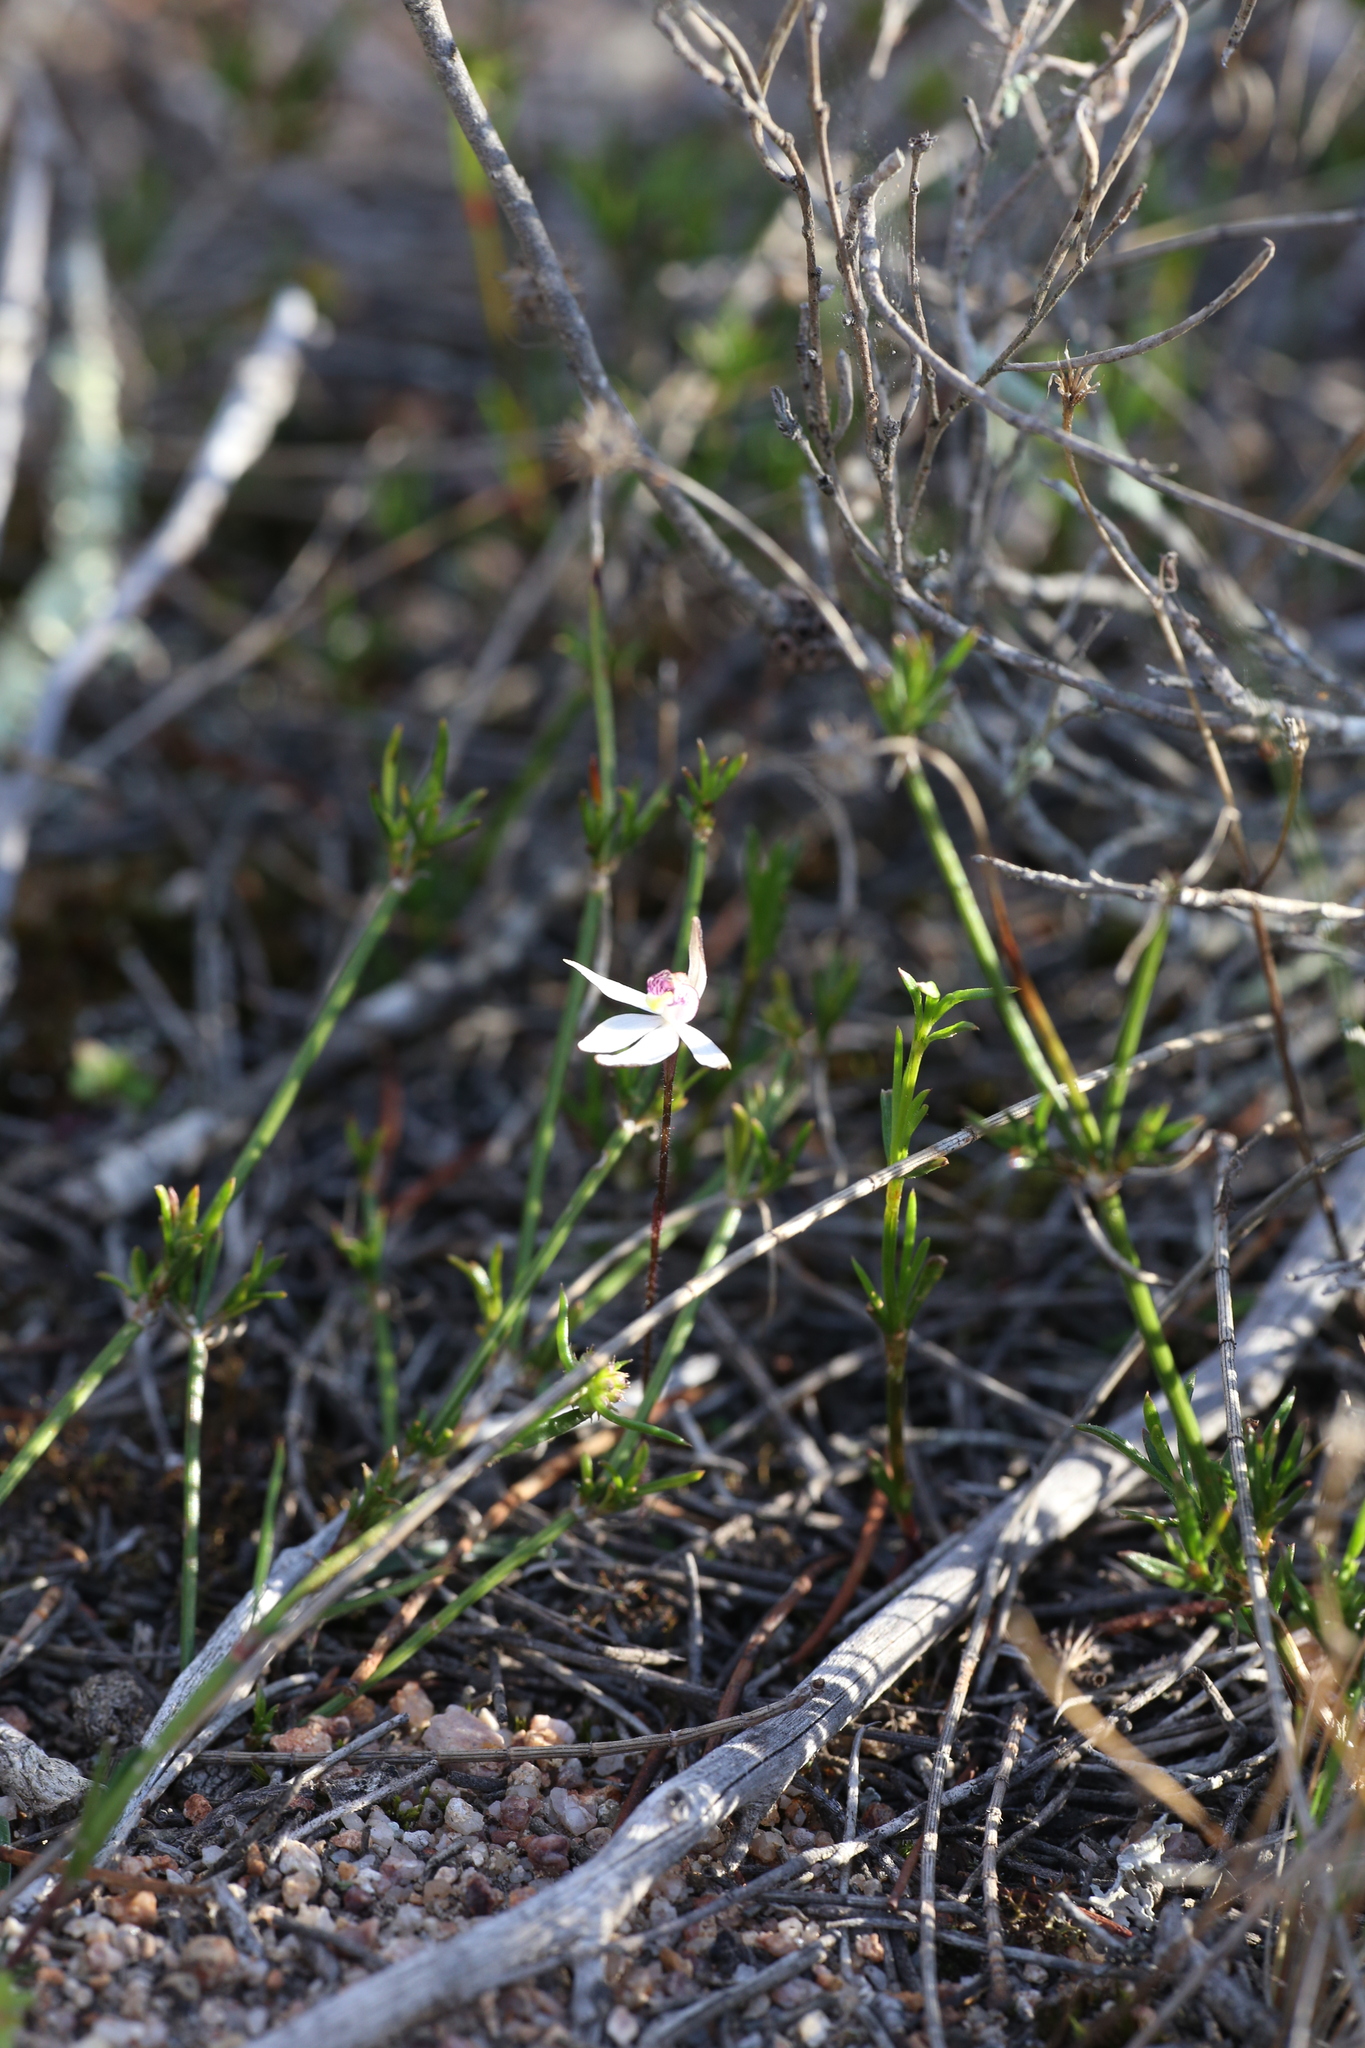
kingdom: Plantae
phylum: Tracheophyta
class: Liliopsida
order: Asparagales
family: Orchidaceae
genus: Caladenia
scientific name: Caladenia saccharata
